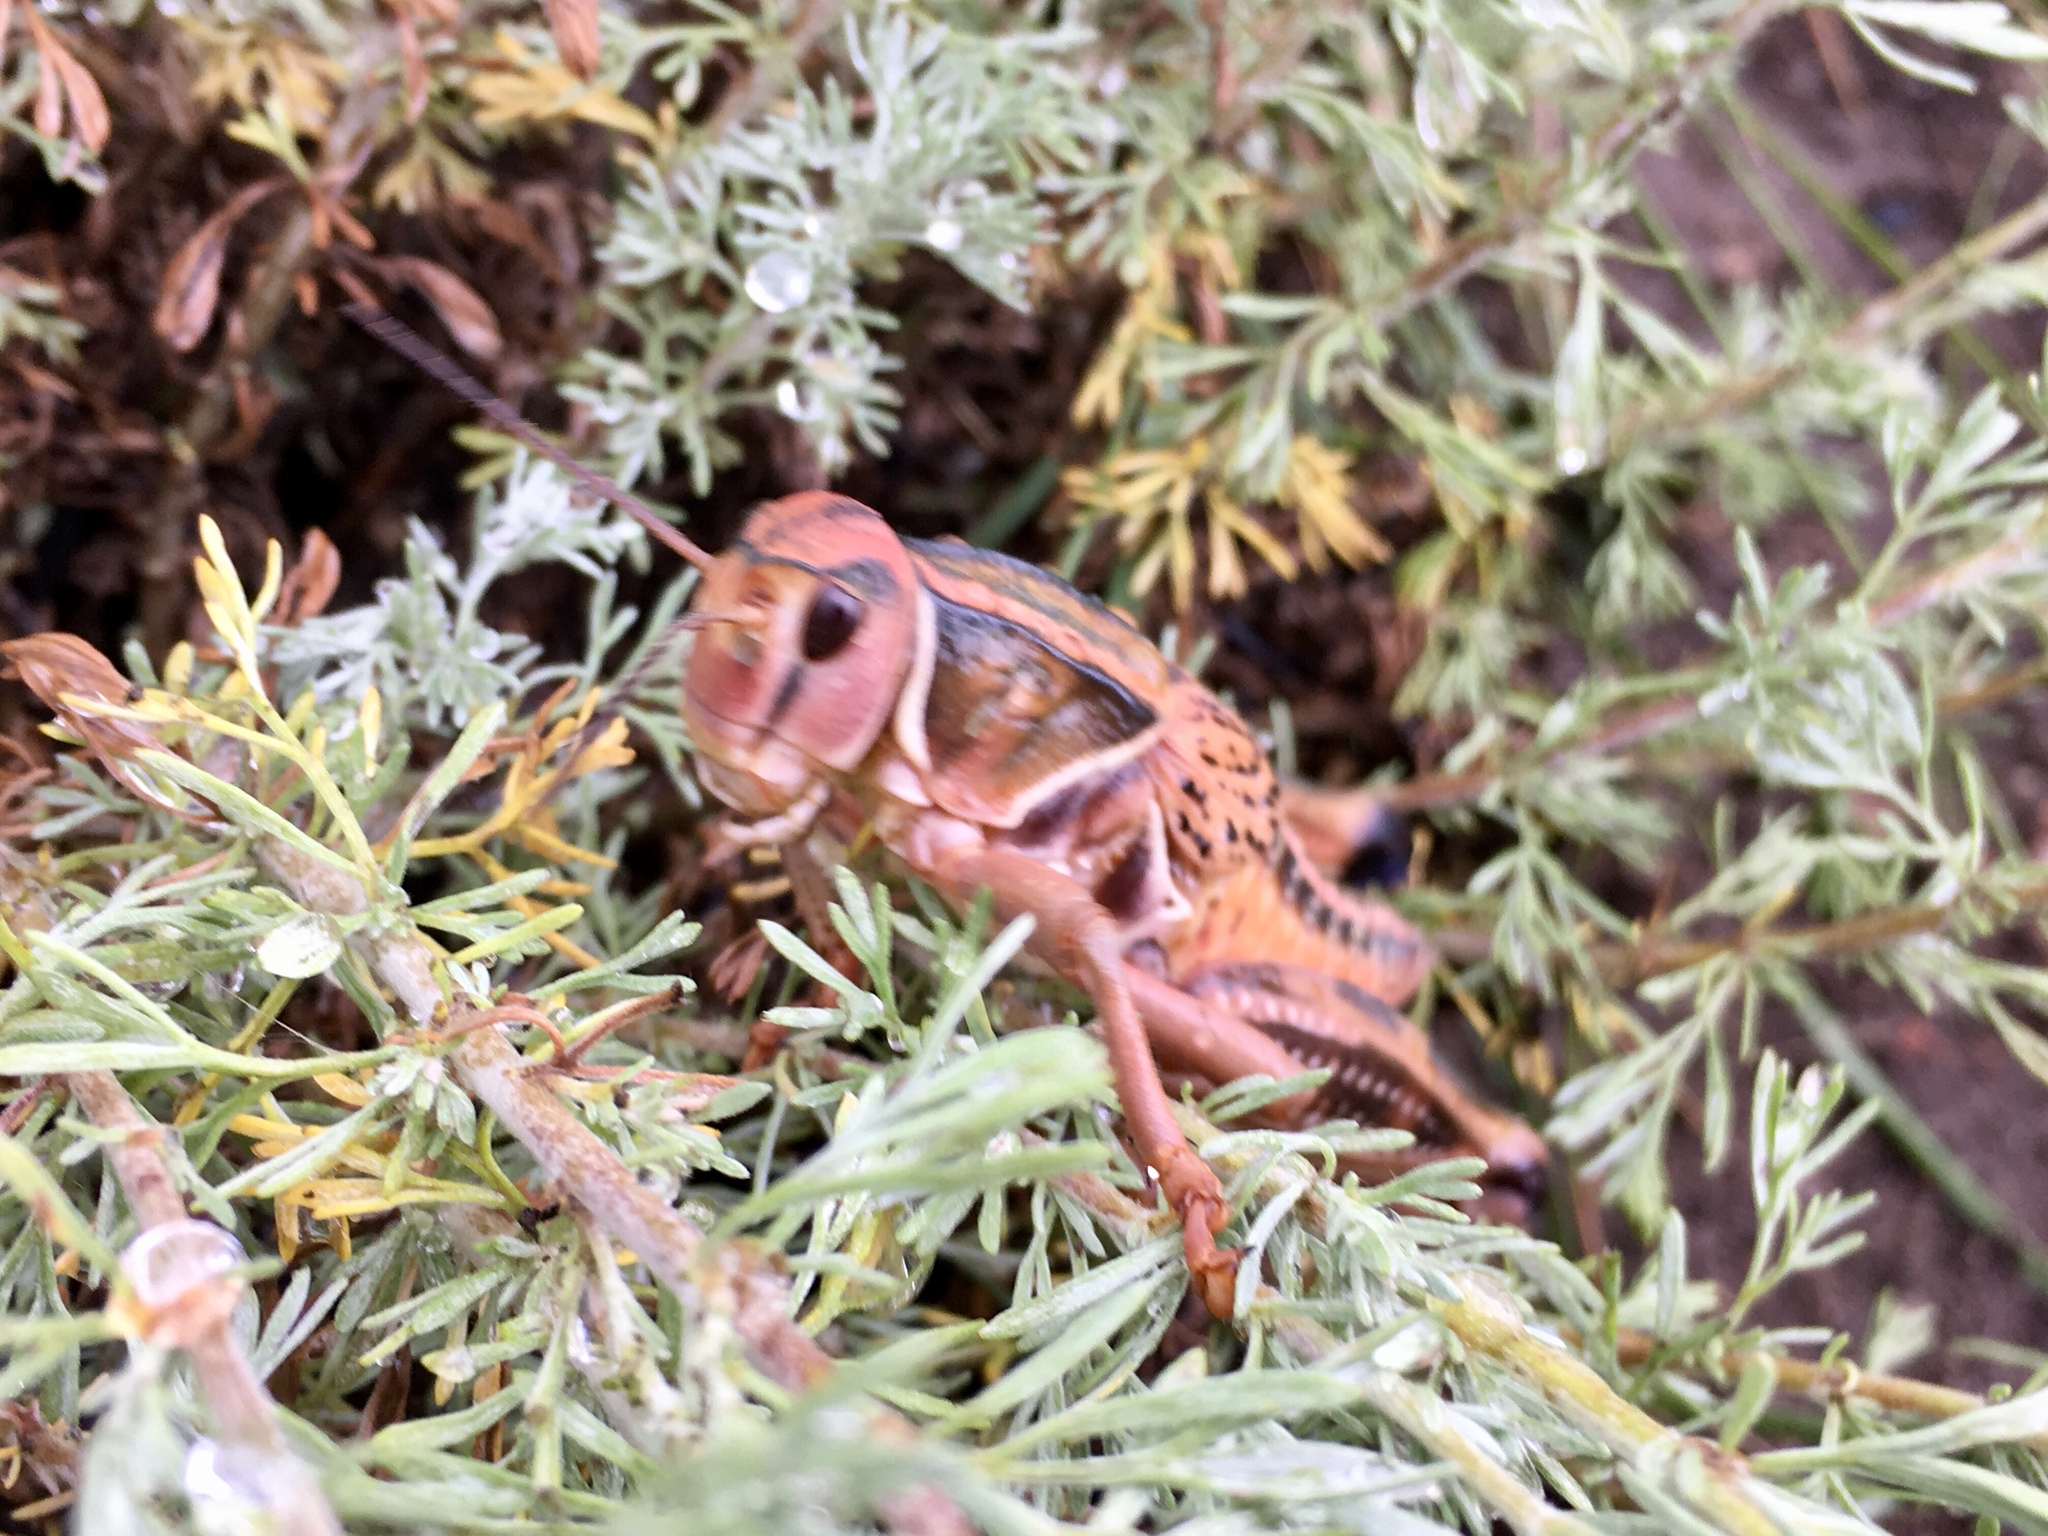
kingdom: Animalia
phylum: Arthropoda
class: Insecta
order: Orthoptera
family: Romaleidae
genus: Brachystola
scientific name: Brachystola magna
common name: Plains lubber grasshopper
